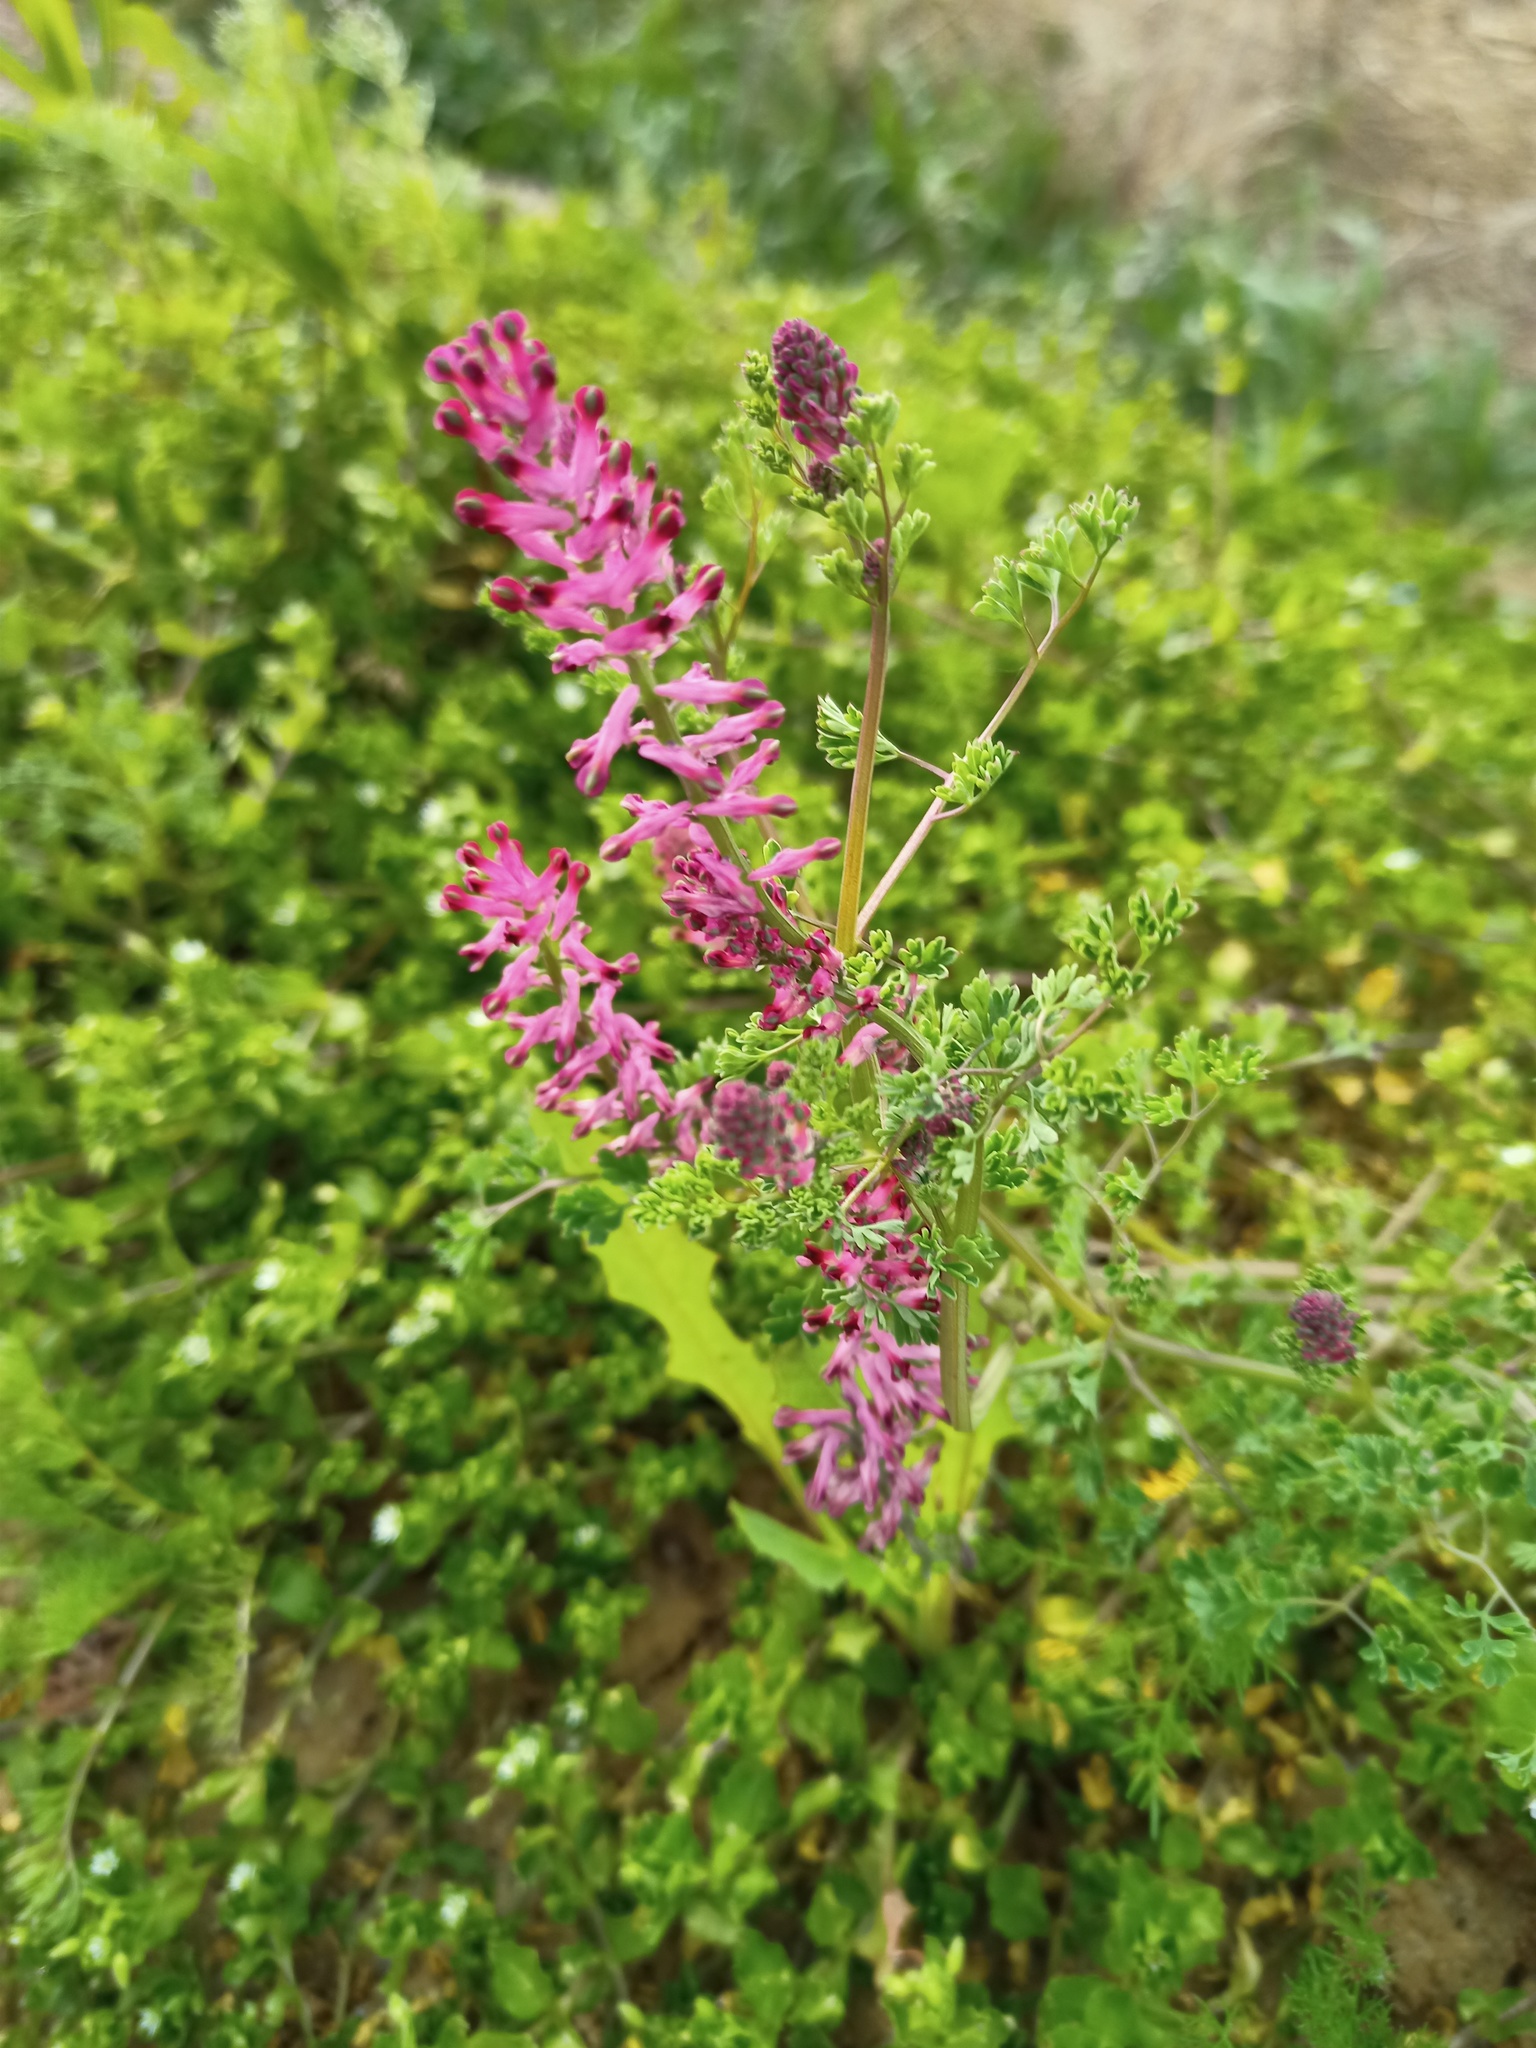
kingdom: Plantae
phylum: Tracheophyta
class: Magnoliopsida
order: Ranunculales
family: Papaveraceae
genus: Fumaria
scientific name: Fumaria officinalis
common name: Common fumitory
